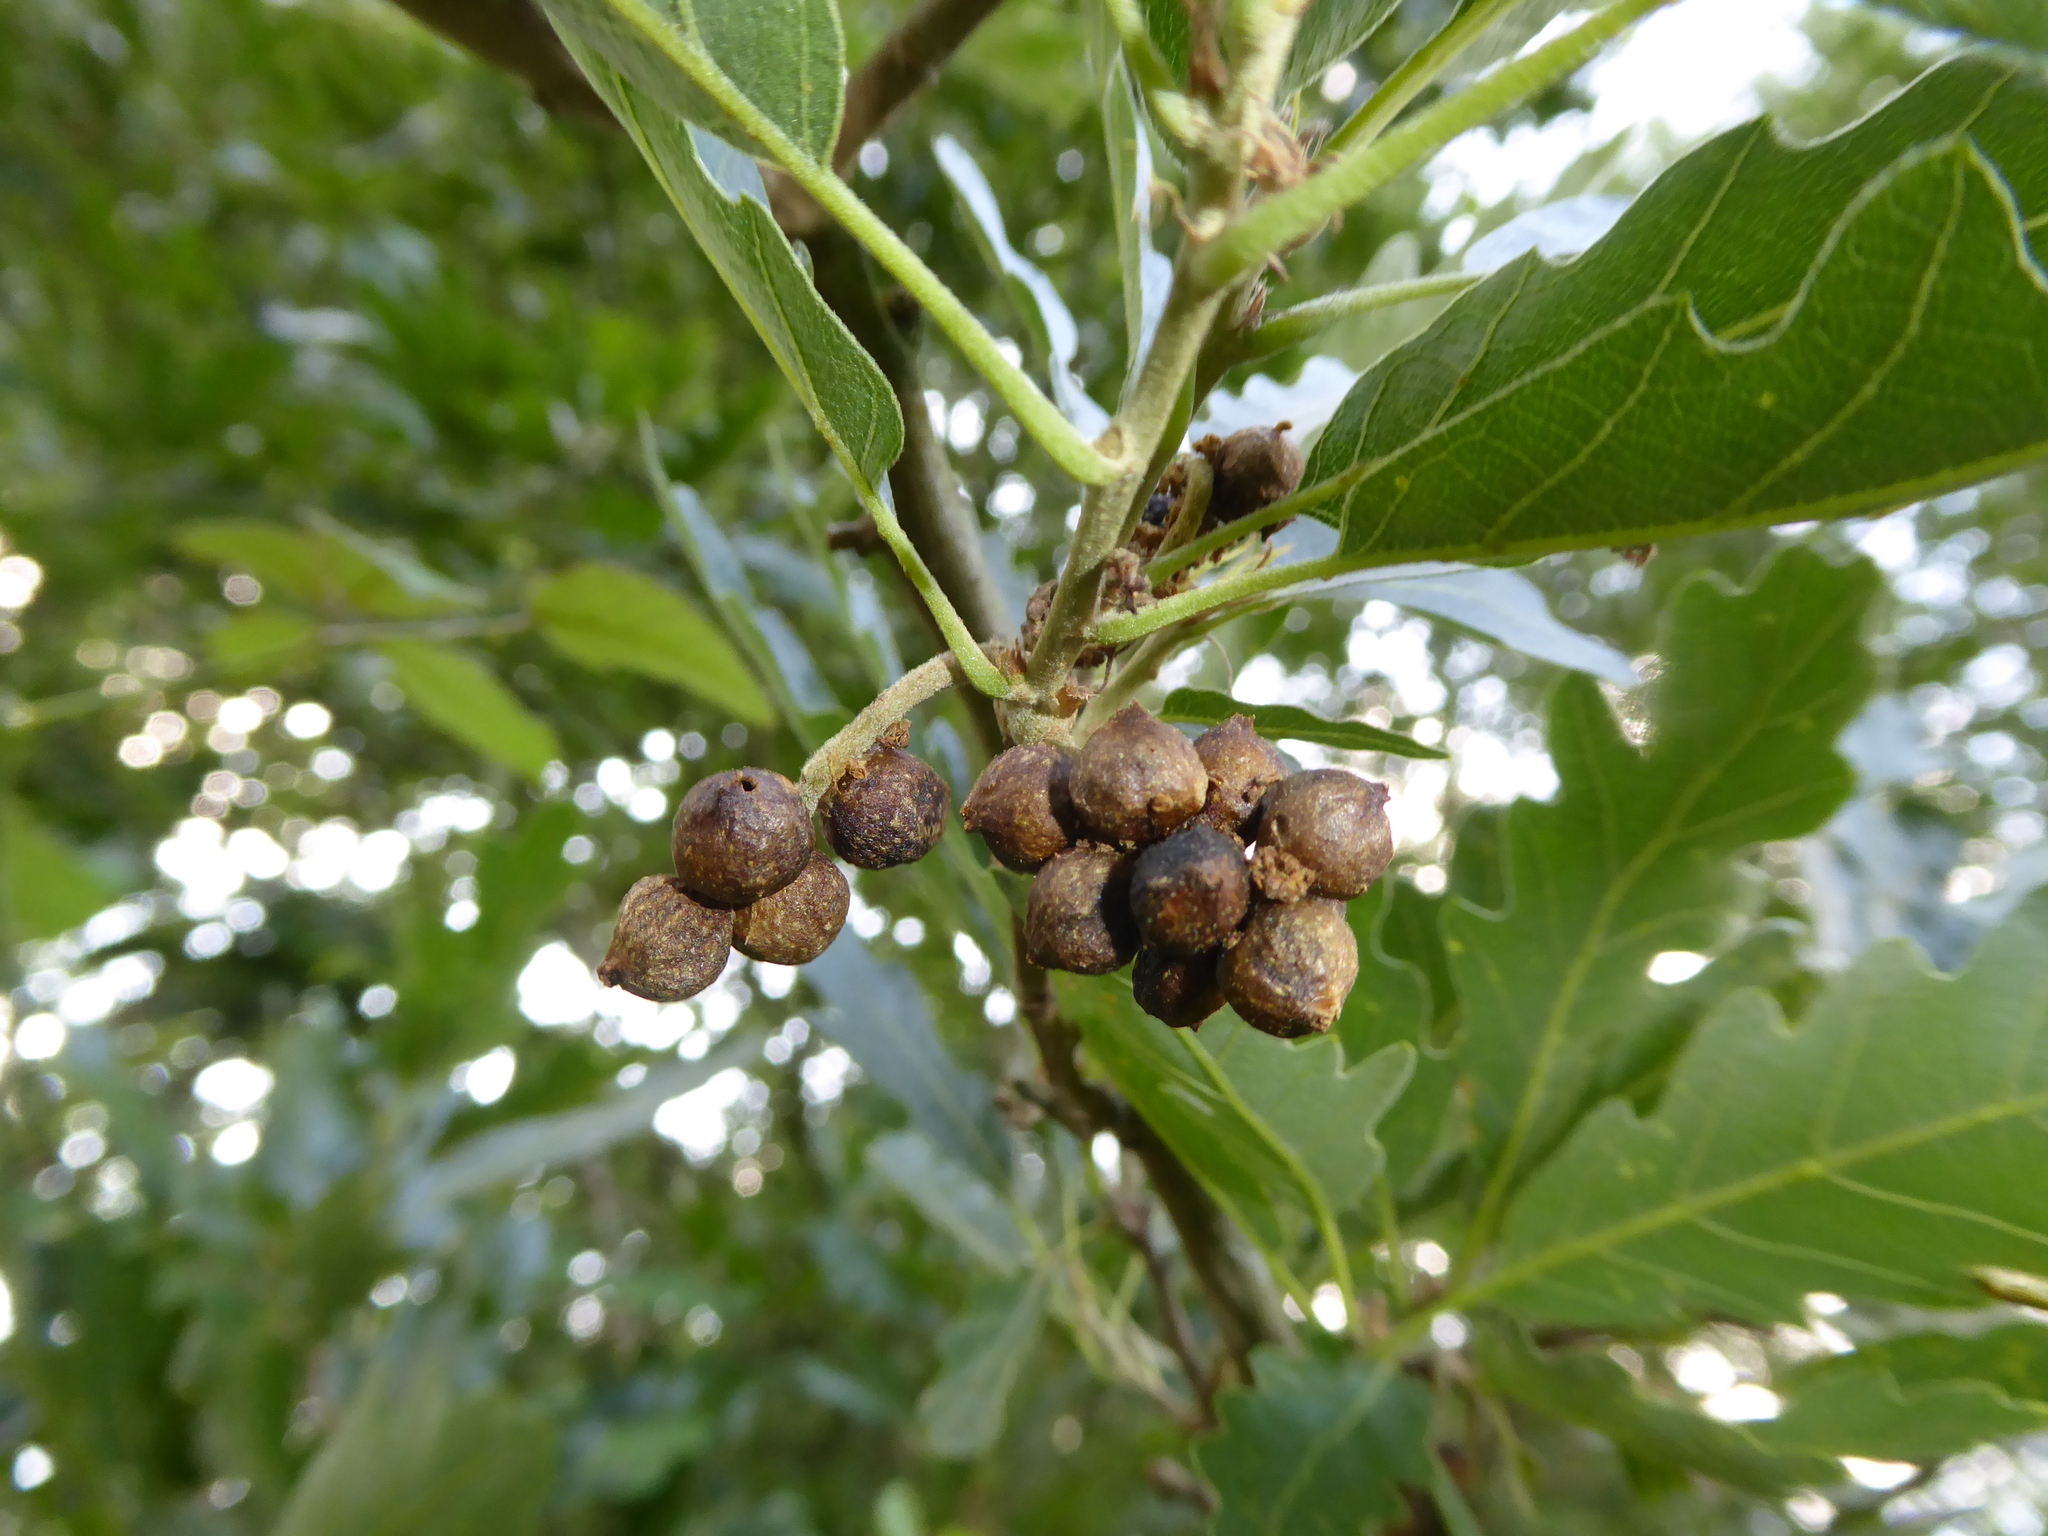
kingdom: Plantae
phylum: Tracheophyta
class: Magnoliopsida
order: Fagales
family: Fagaceae
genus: Quercus
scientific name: Quercus cerris
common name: Turkey oak
